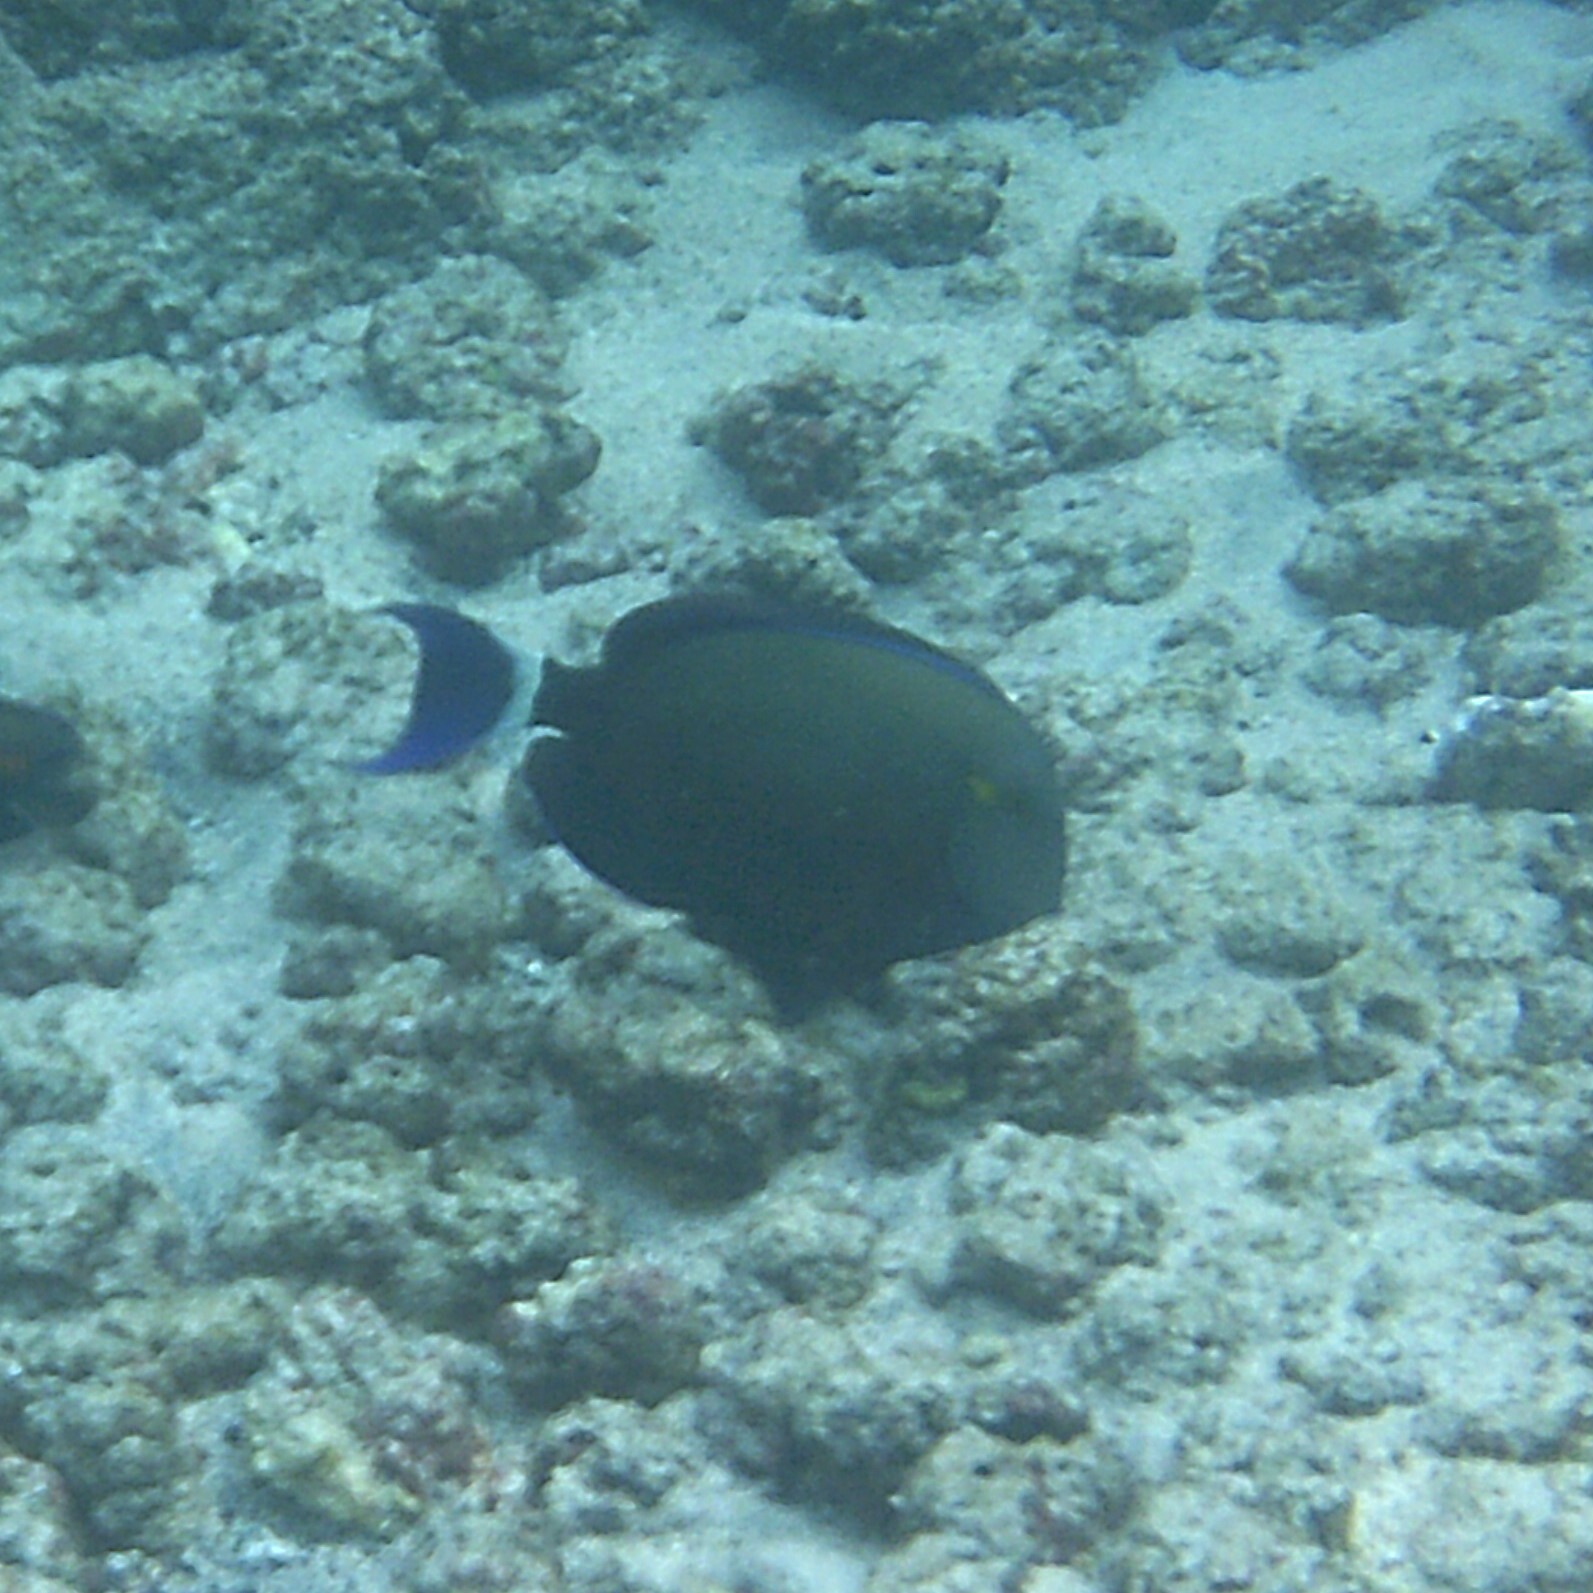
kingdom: Animalia
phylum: Chordata
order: Perciformes
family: Acanthuridae
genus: Acanthurus
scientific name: Acanthurus blochii
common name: Blue-banded pualu
